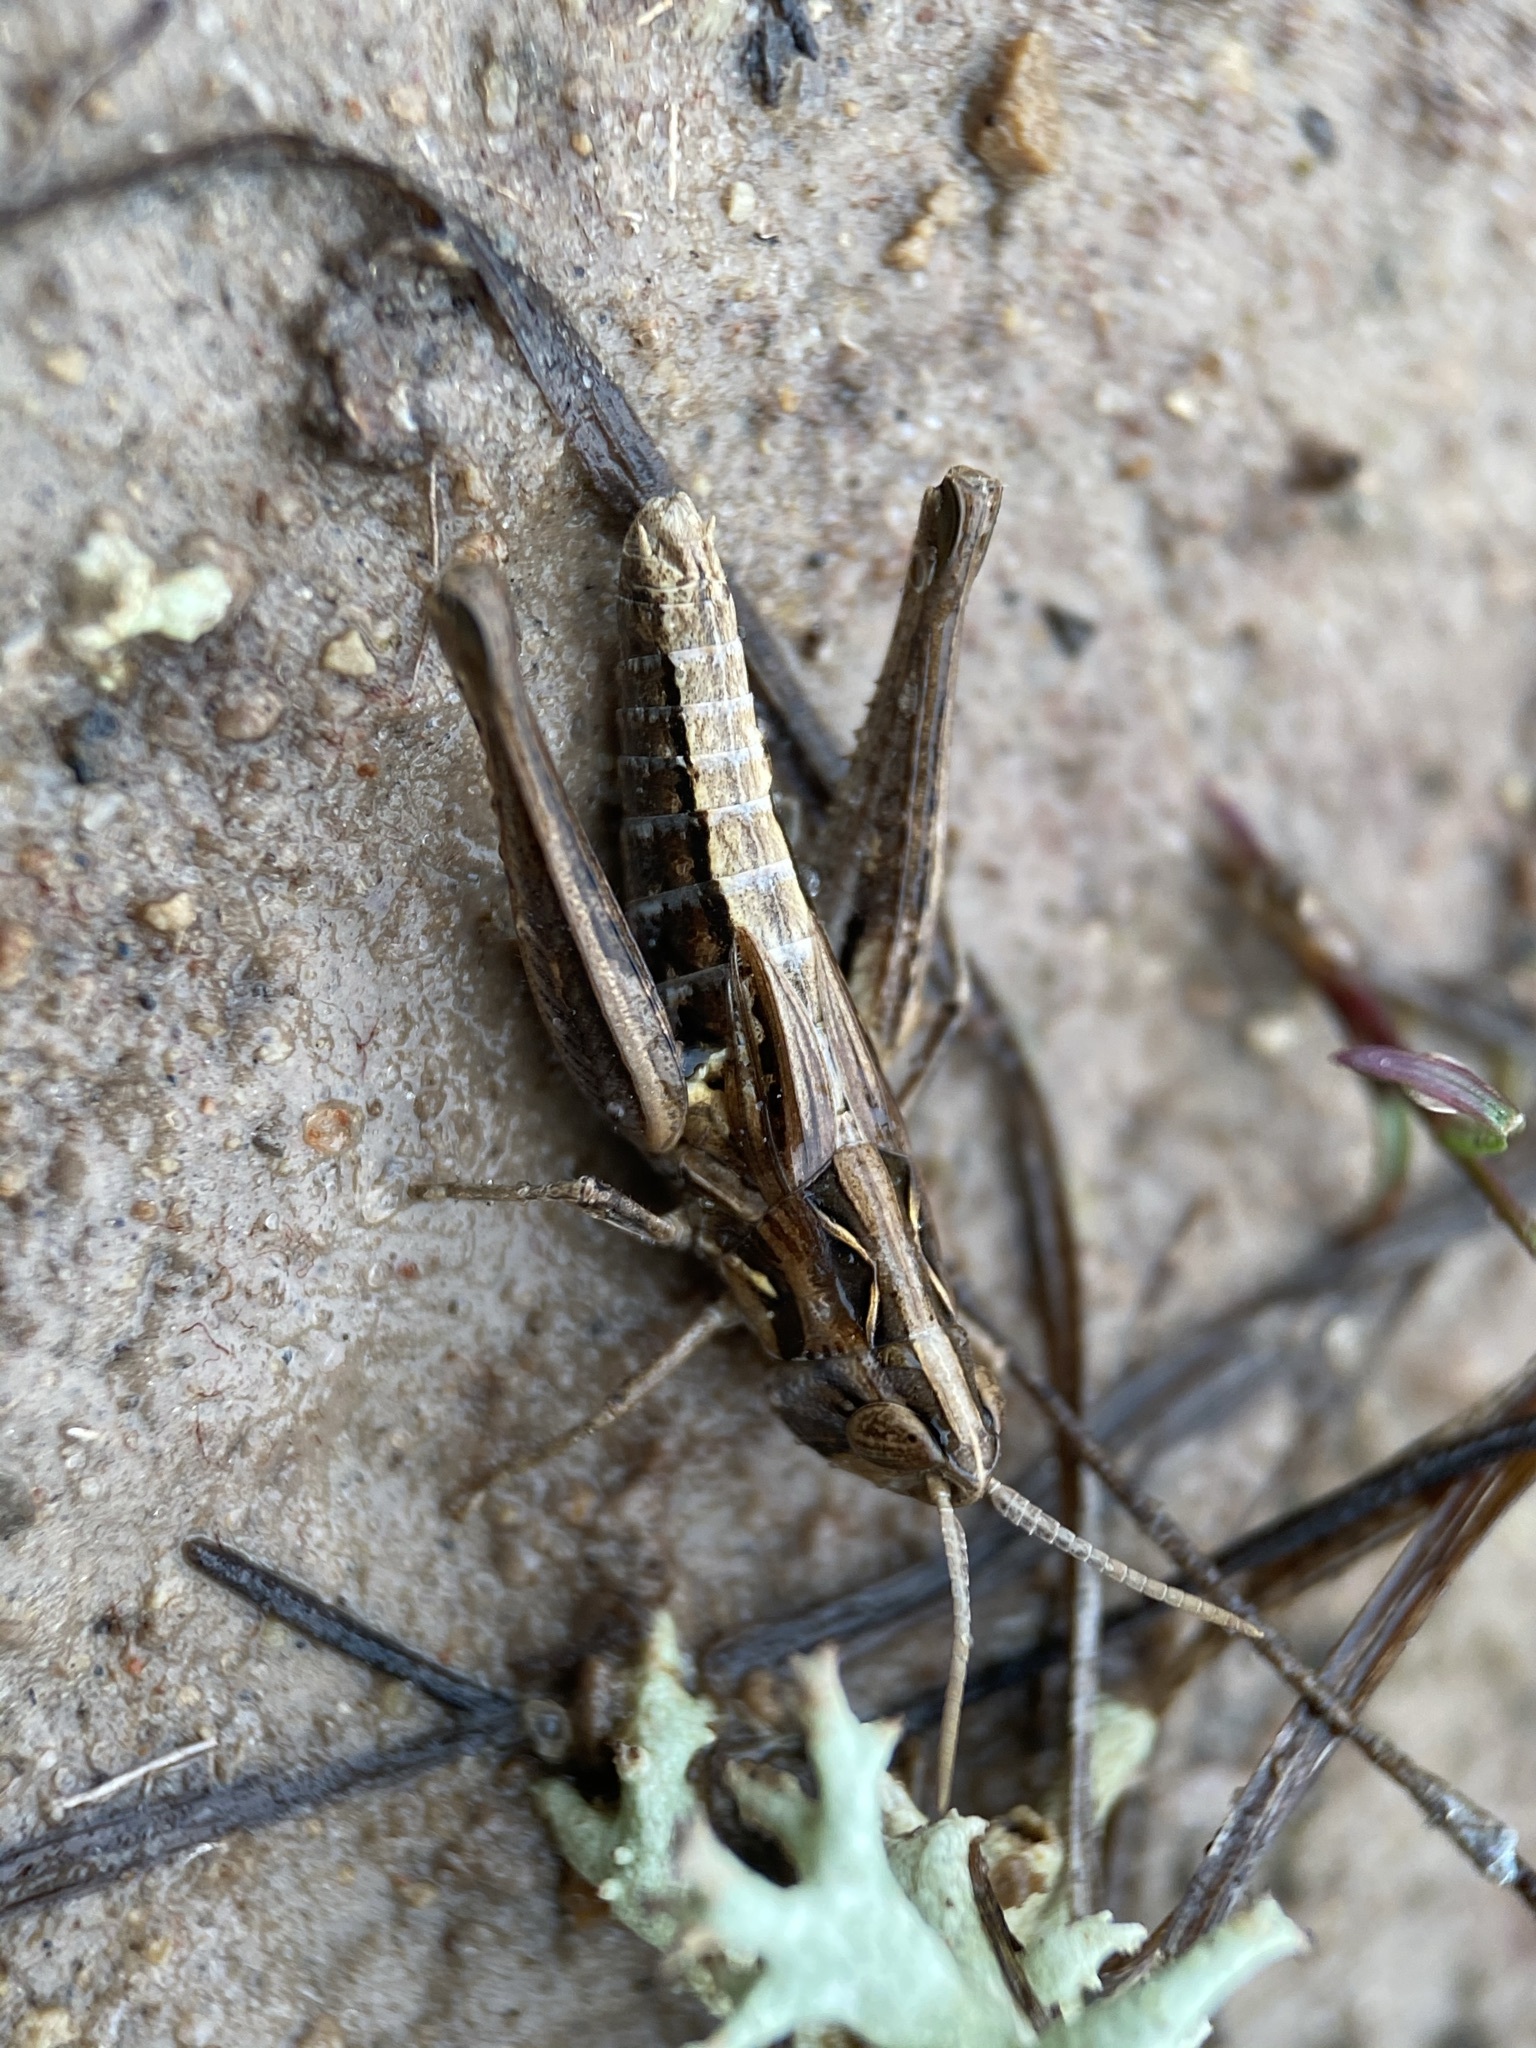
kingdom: Animalia
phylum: Arthropoda
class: Insecta
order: Orthoptera
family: Acrididae
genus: Eritettix
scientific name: Eritettix abortivus
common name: Slant-faced grasshopper
